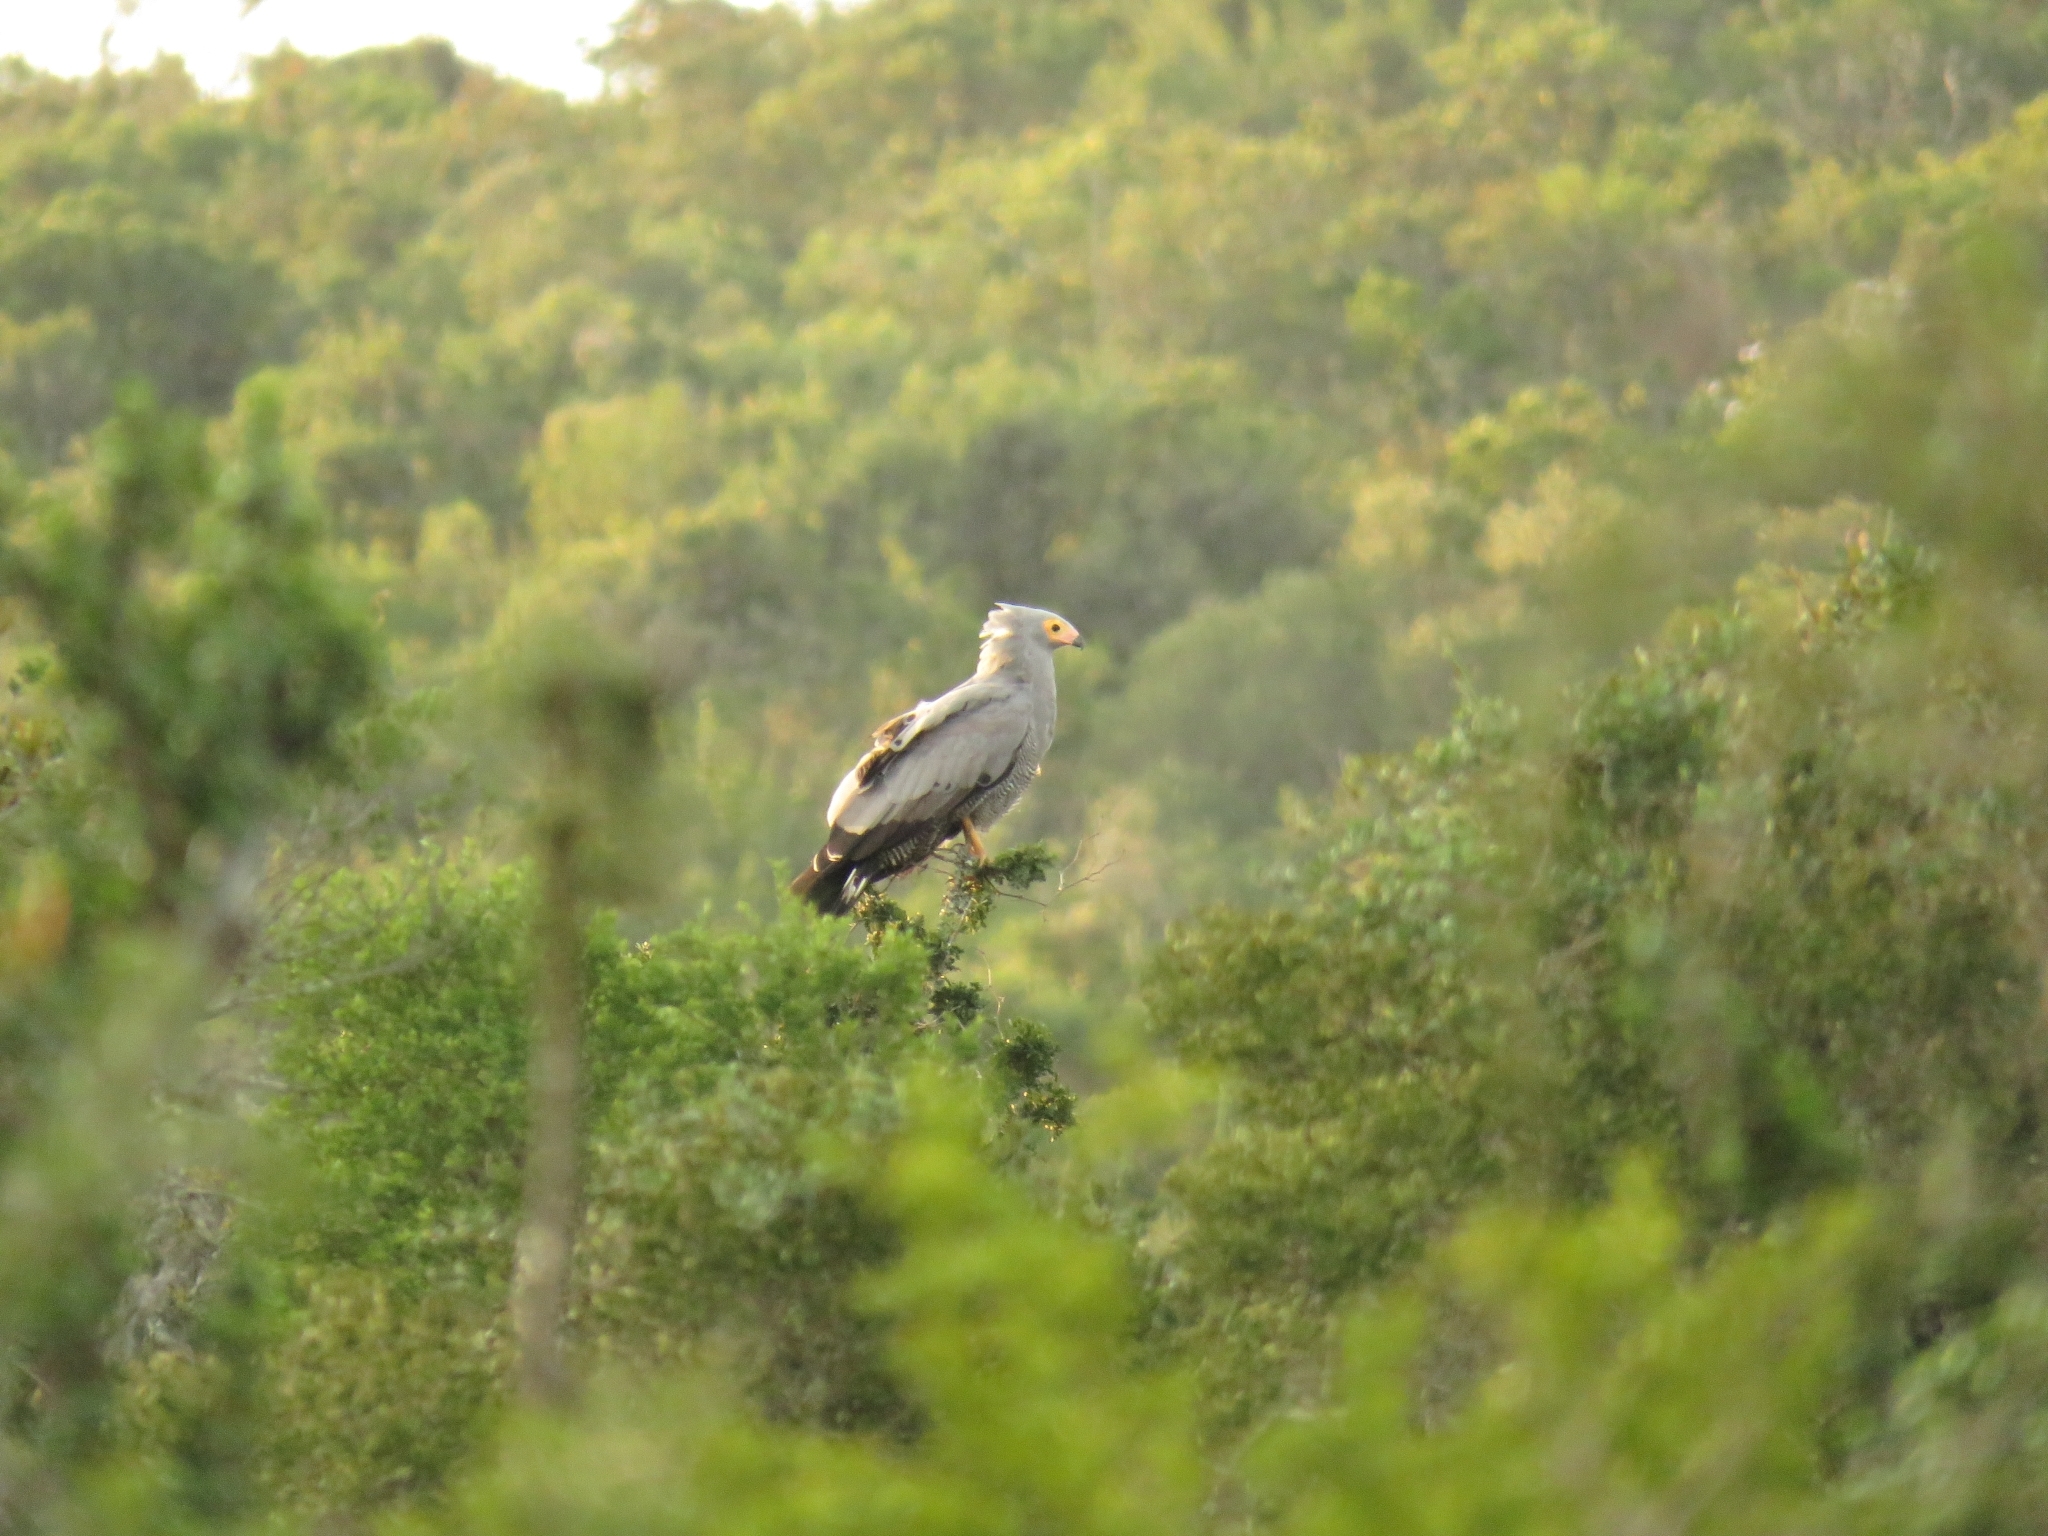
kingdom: Animalia
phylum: Chordata
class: Aves
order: Accipitriformes
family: Accipitridae
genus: Polyboroides
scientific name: Polyboroides typus
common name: African harrier-hawk
